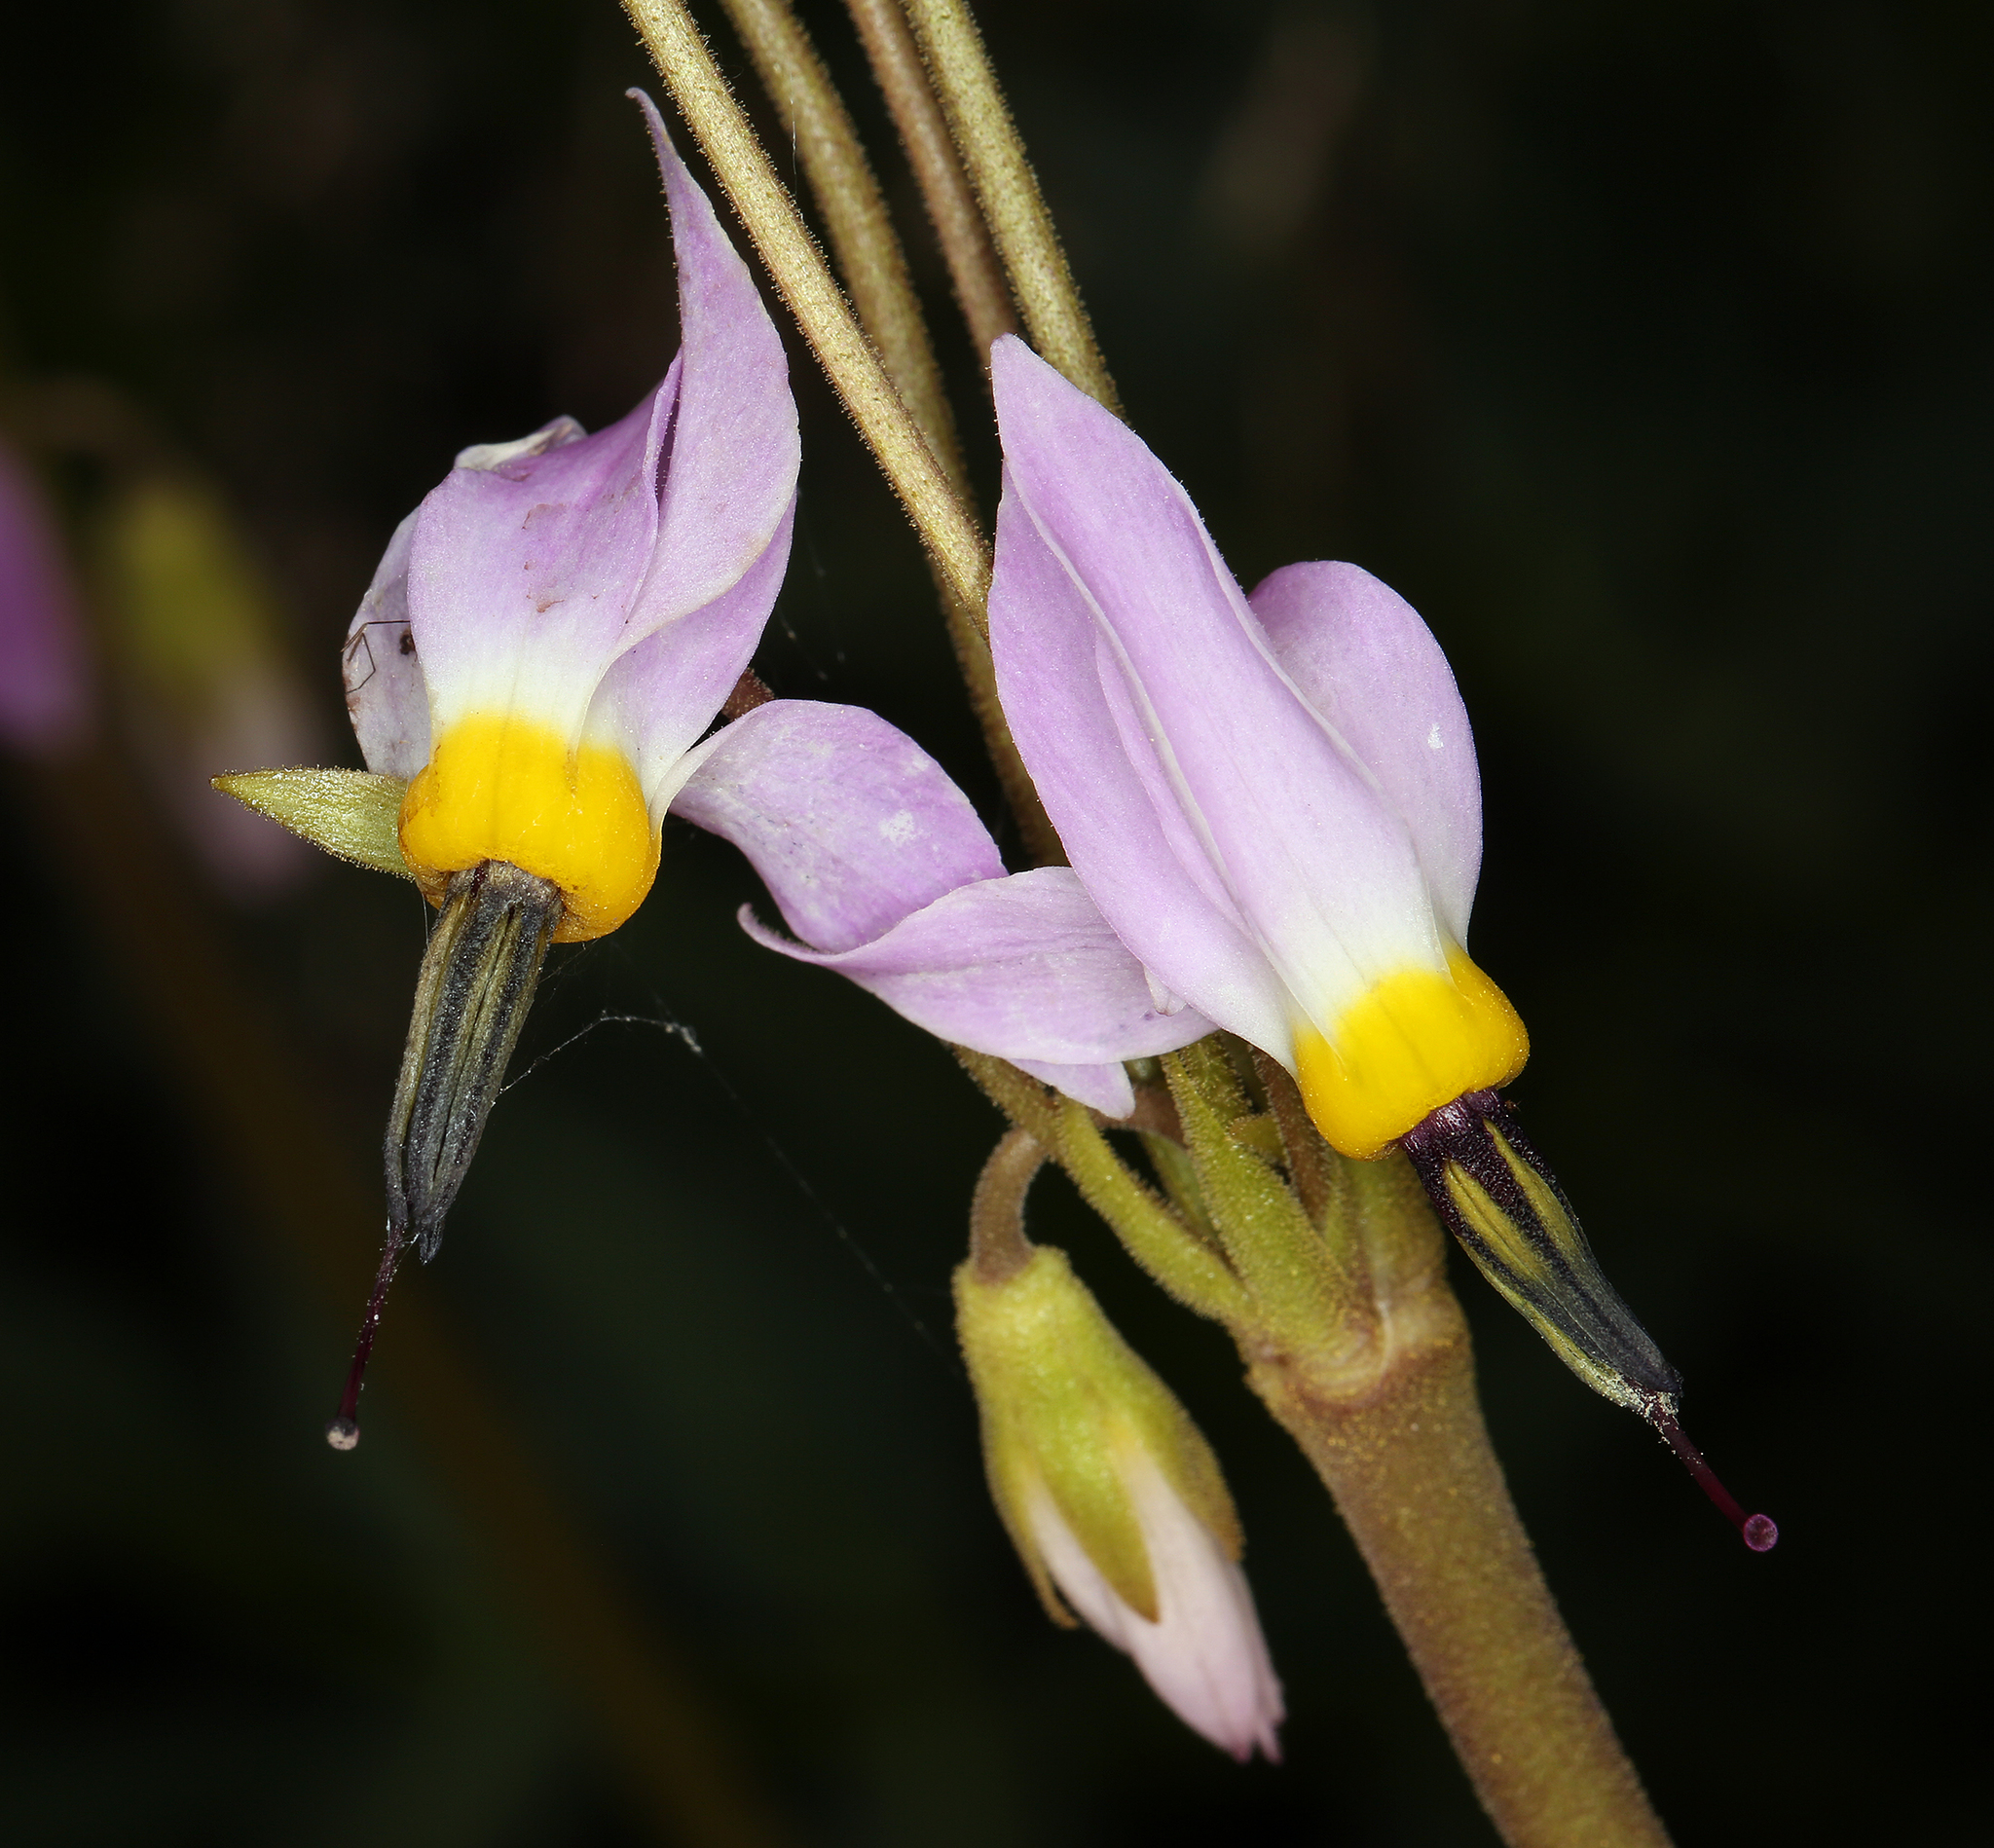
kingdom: Plantae
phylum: Tracheophyta
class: Magnoliopsida
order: Ericales
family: Primulaceae
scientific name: Primulaceae
